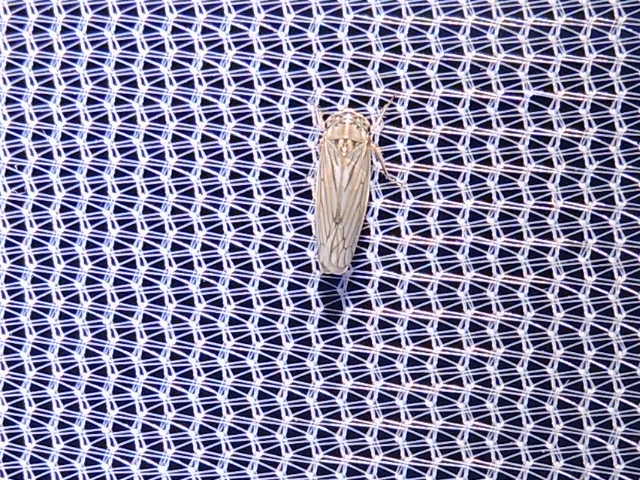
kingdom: Animalia
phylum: Arthropoda
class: Insecta
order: Hemiptera
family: Cicadellidae
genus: Exitianus
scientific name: Exitianus exitiosus
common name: Gray lawn leafhopper
